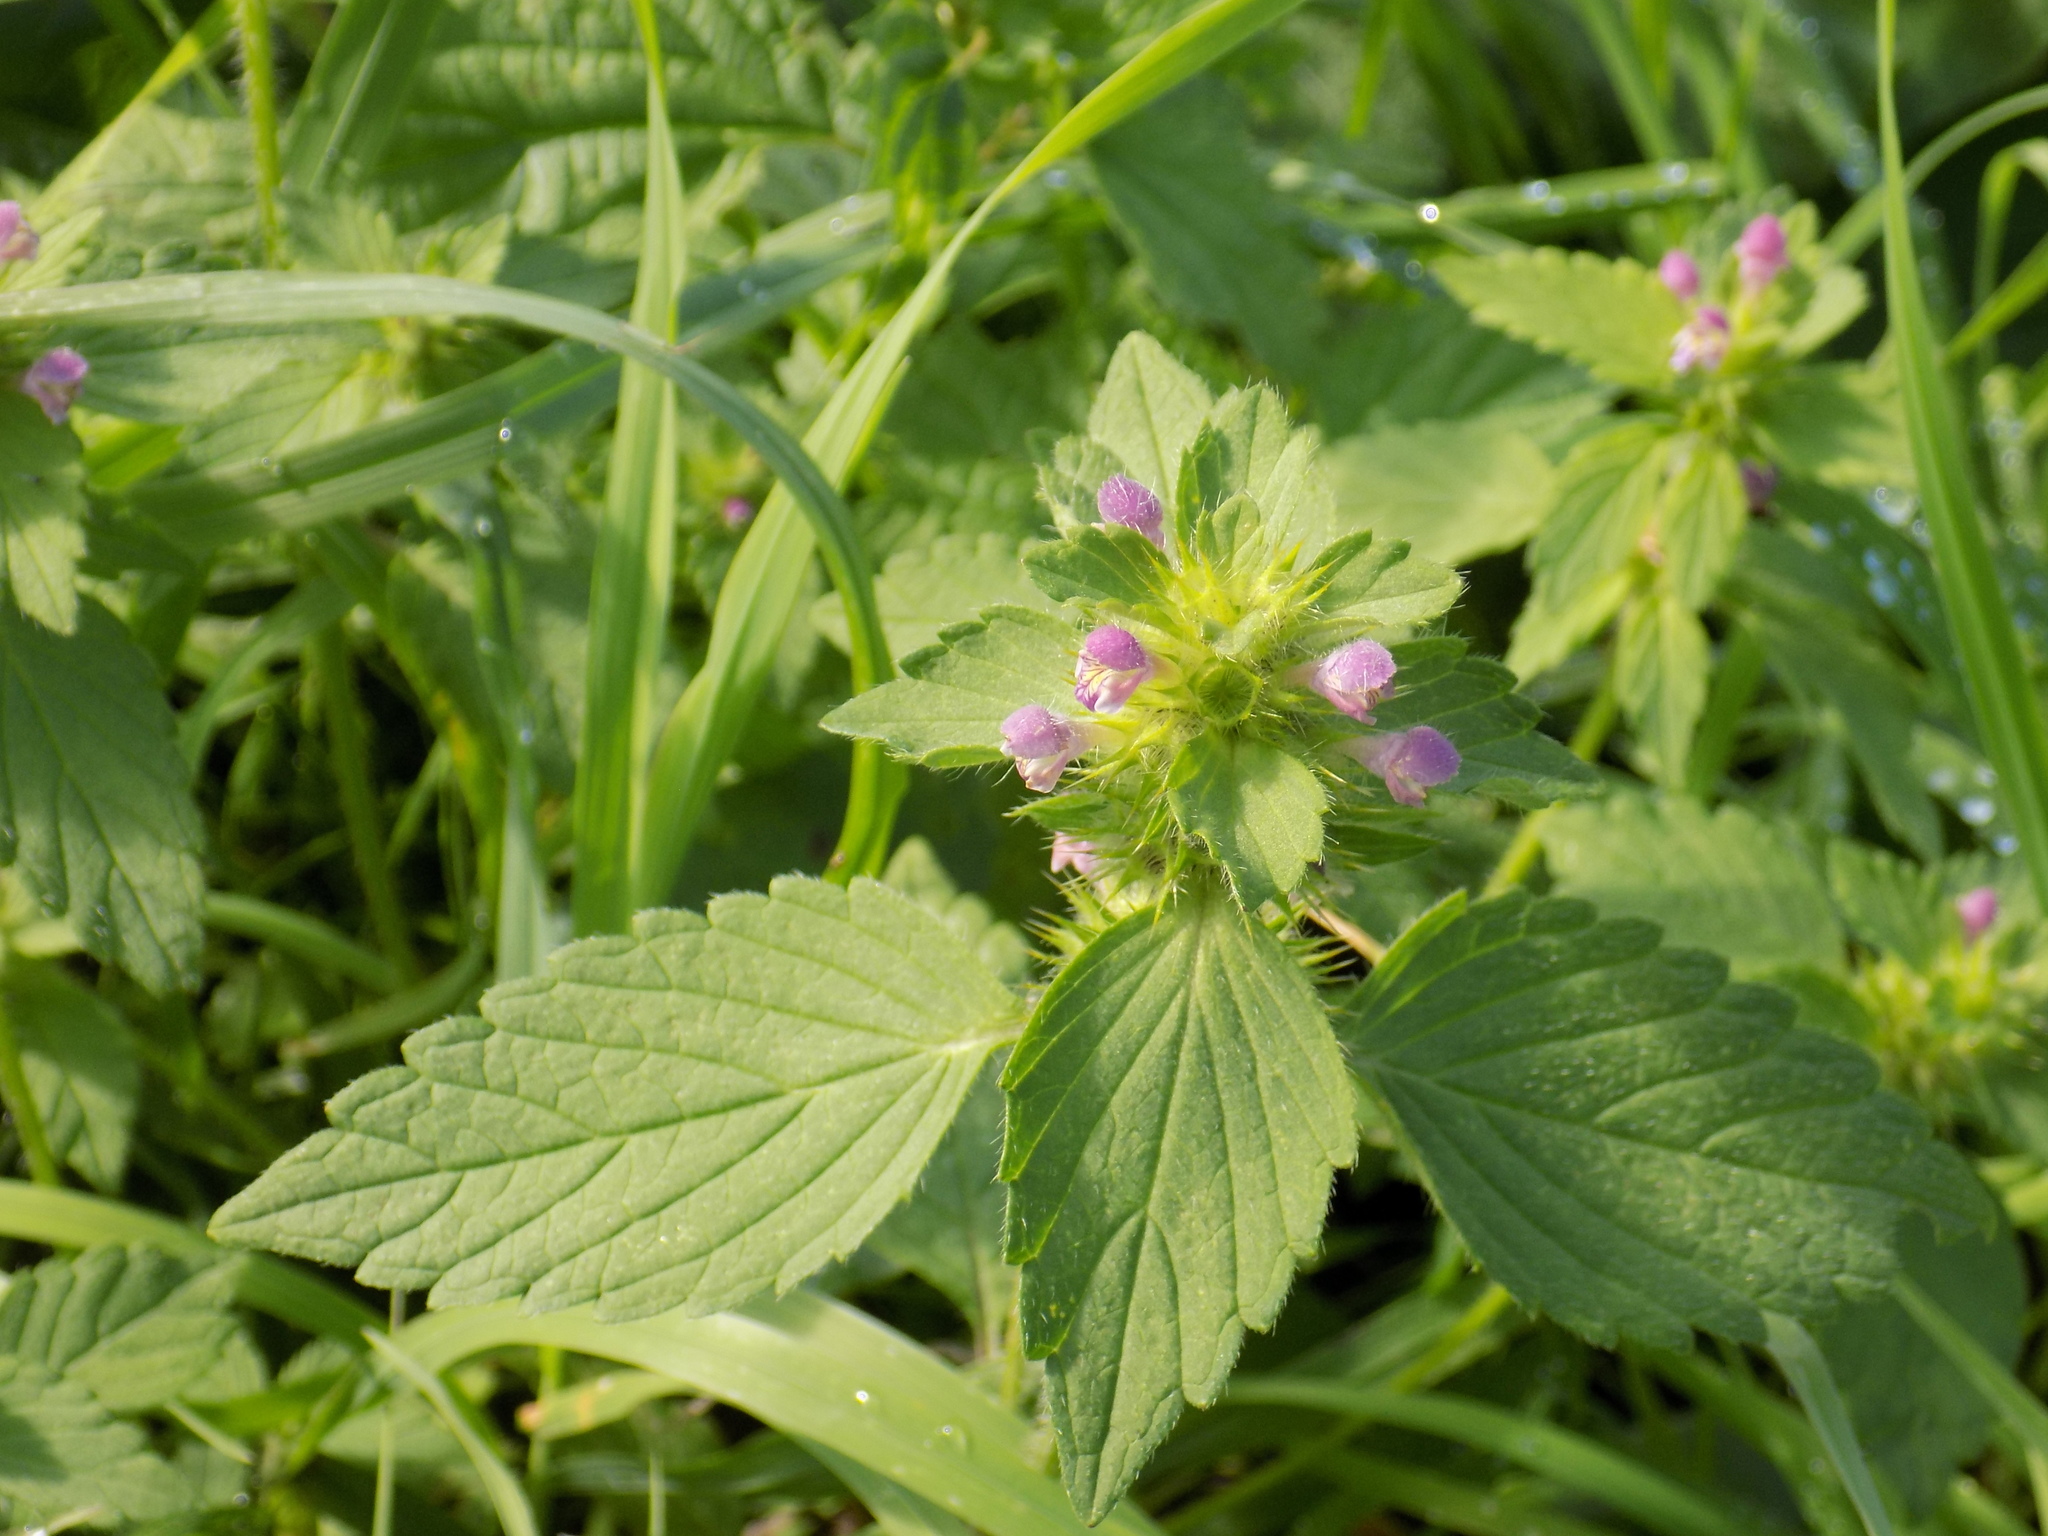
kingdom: Plantae
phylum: Tracheophyta
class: Magnoliopsida
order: Lamiales
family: Lamiaceae
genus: Galeopsis
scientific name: Galeopsis bifida
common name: Bifid hemp-nettle
